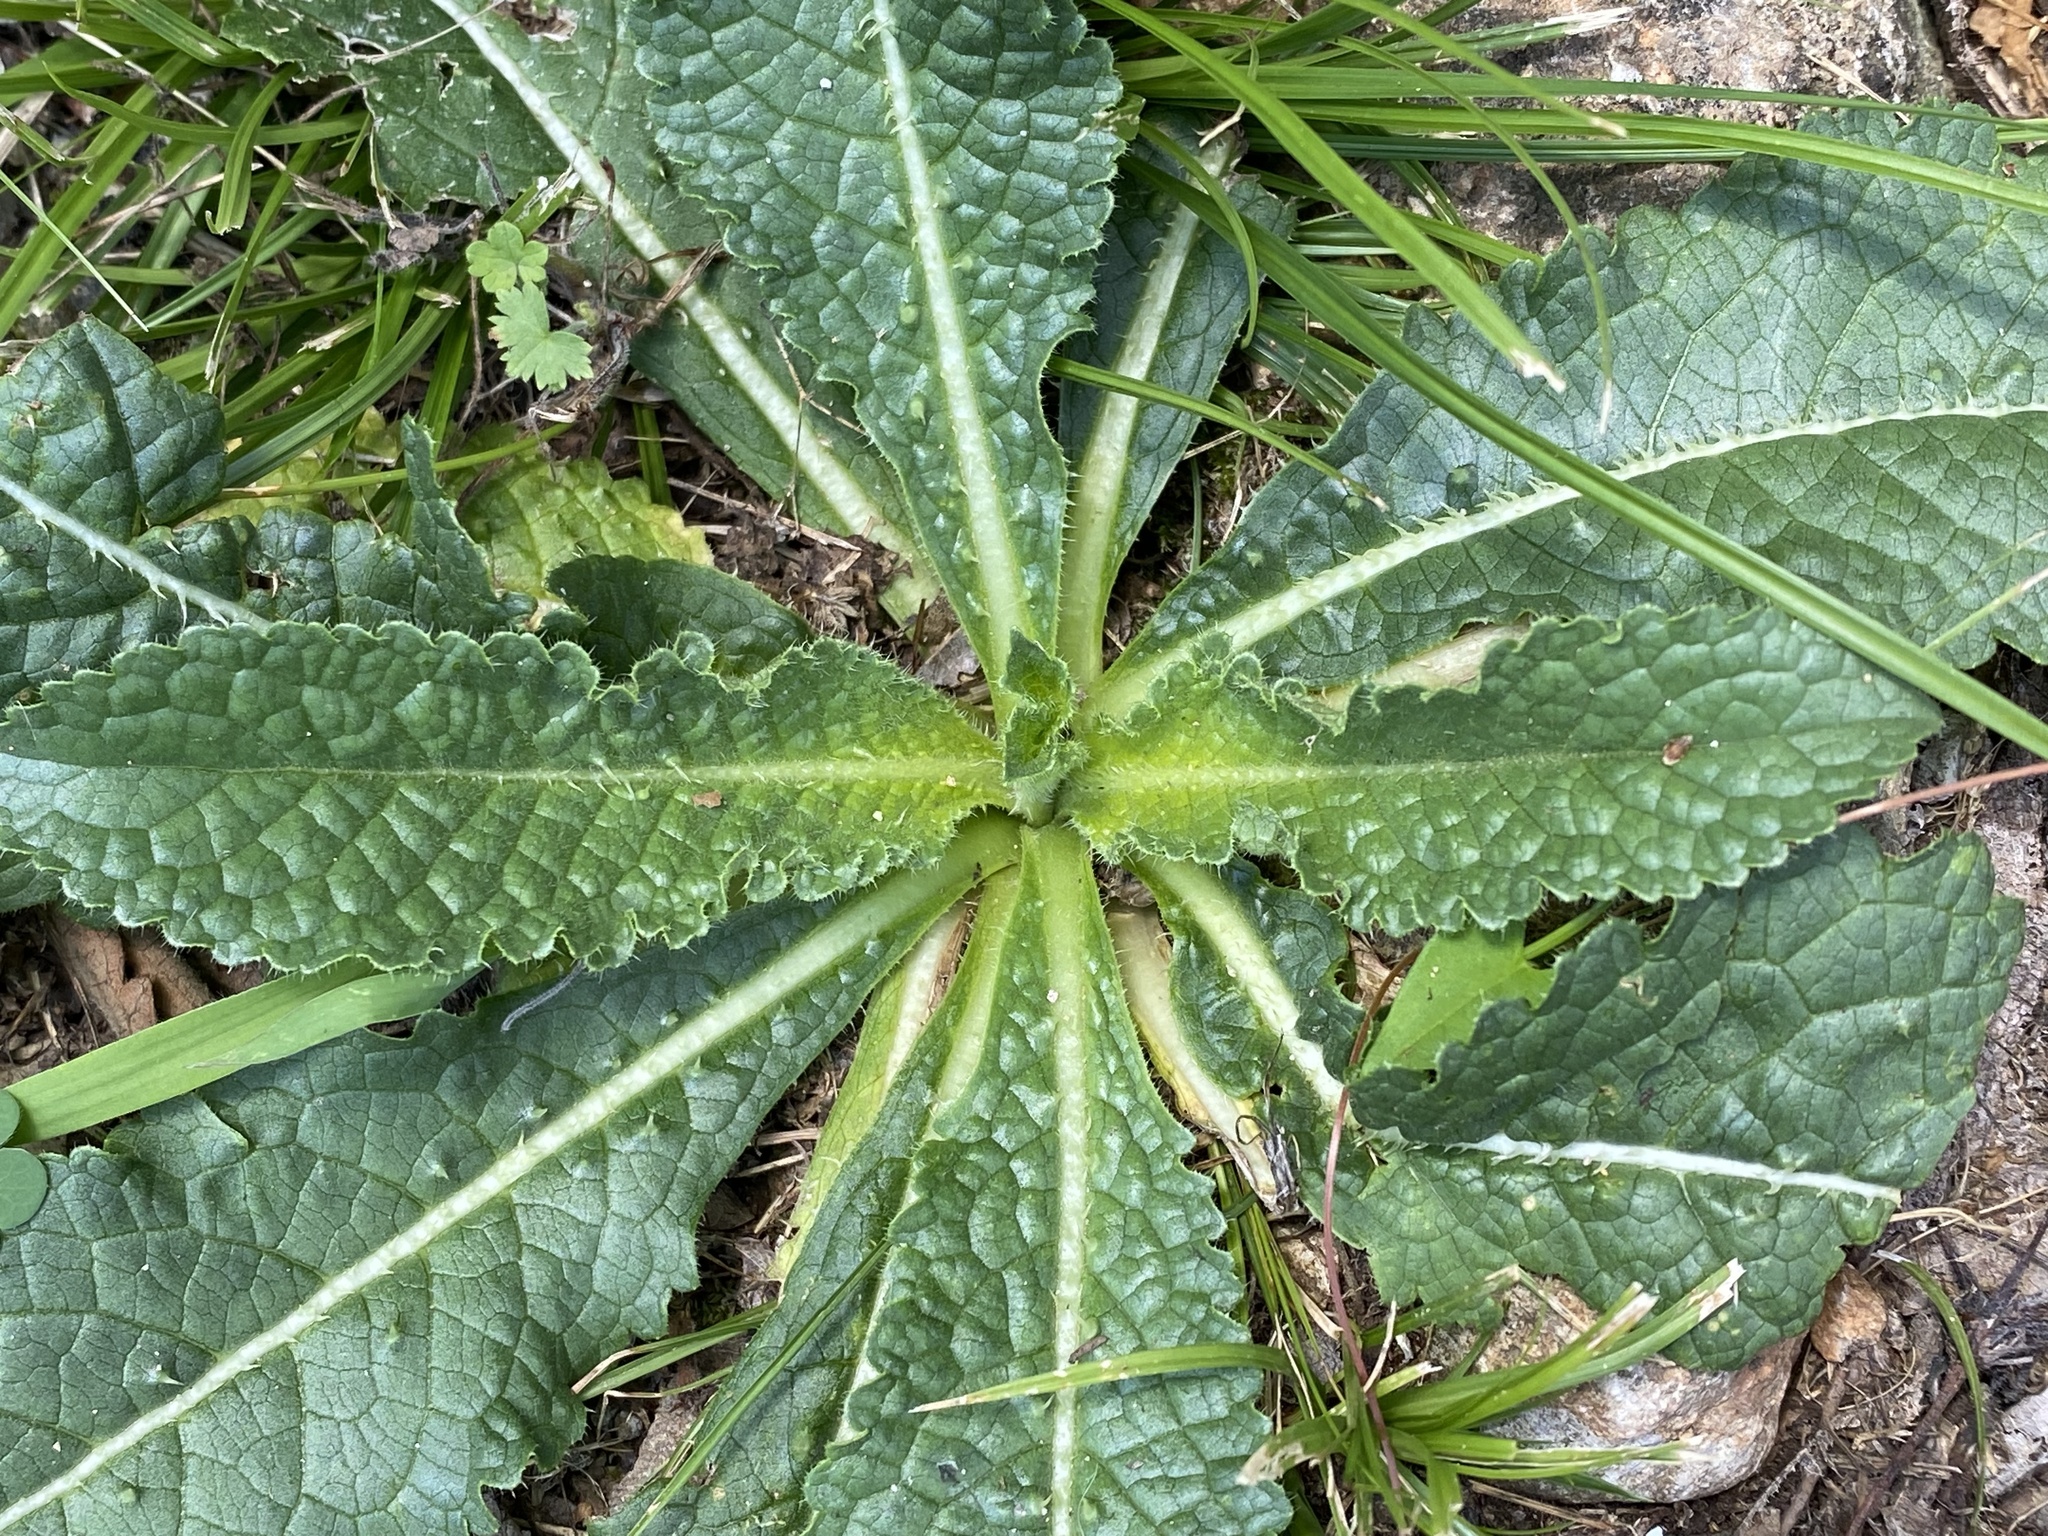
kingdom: Plantae
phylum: Tracheophyta
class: Magnoliopsida
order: Dipsacales
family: Caprifoliaceae
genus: Dipsacus
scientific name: Dipsacus fullonum
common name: Teasel
